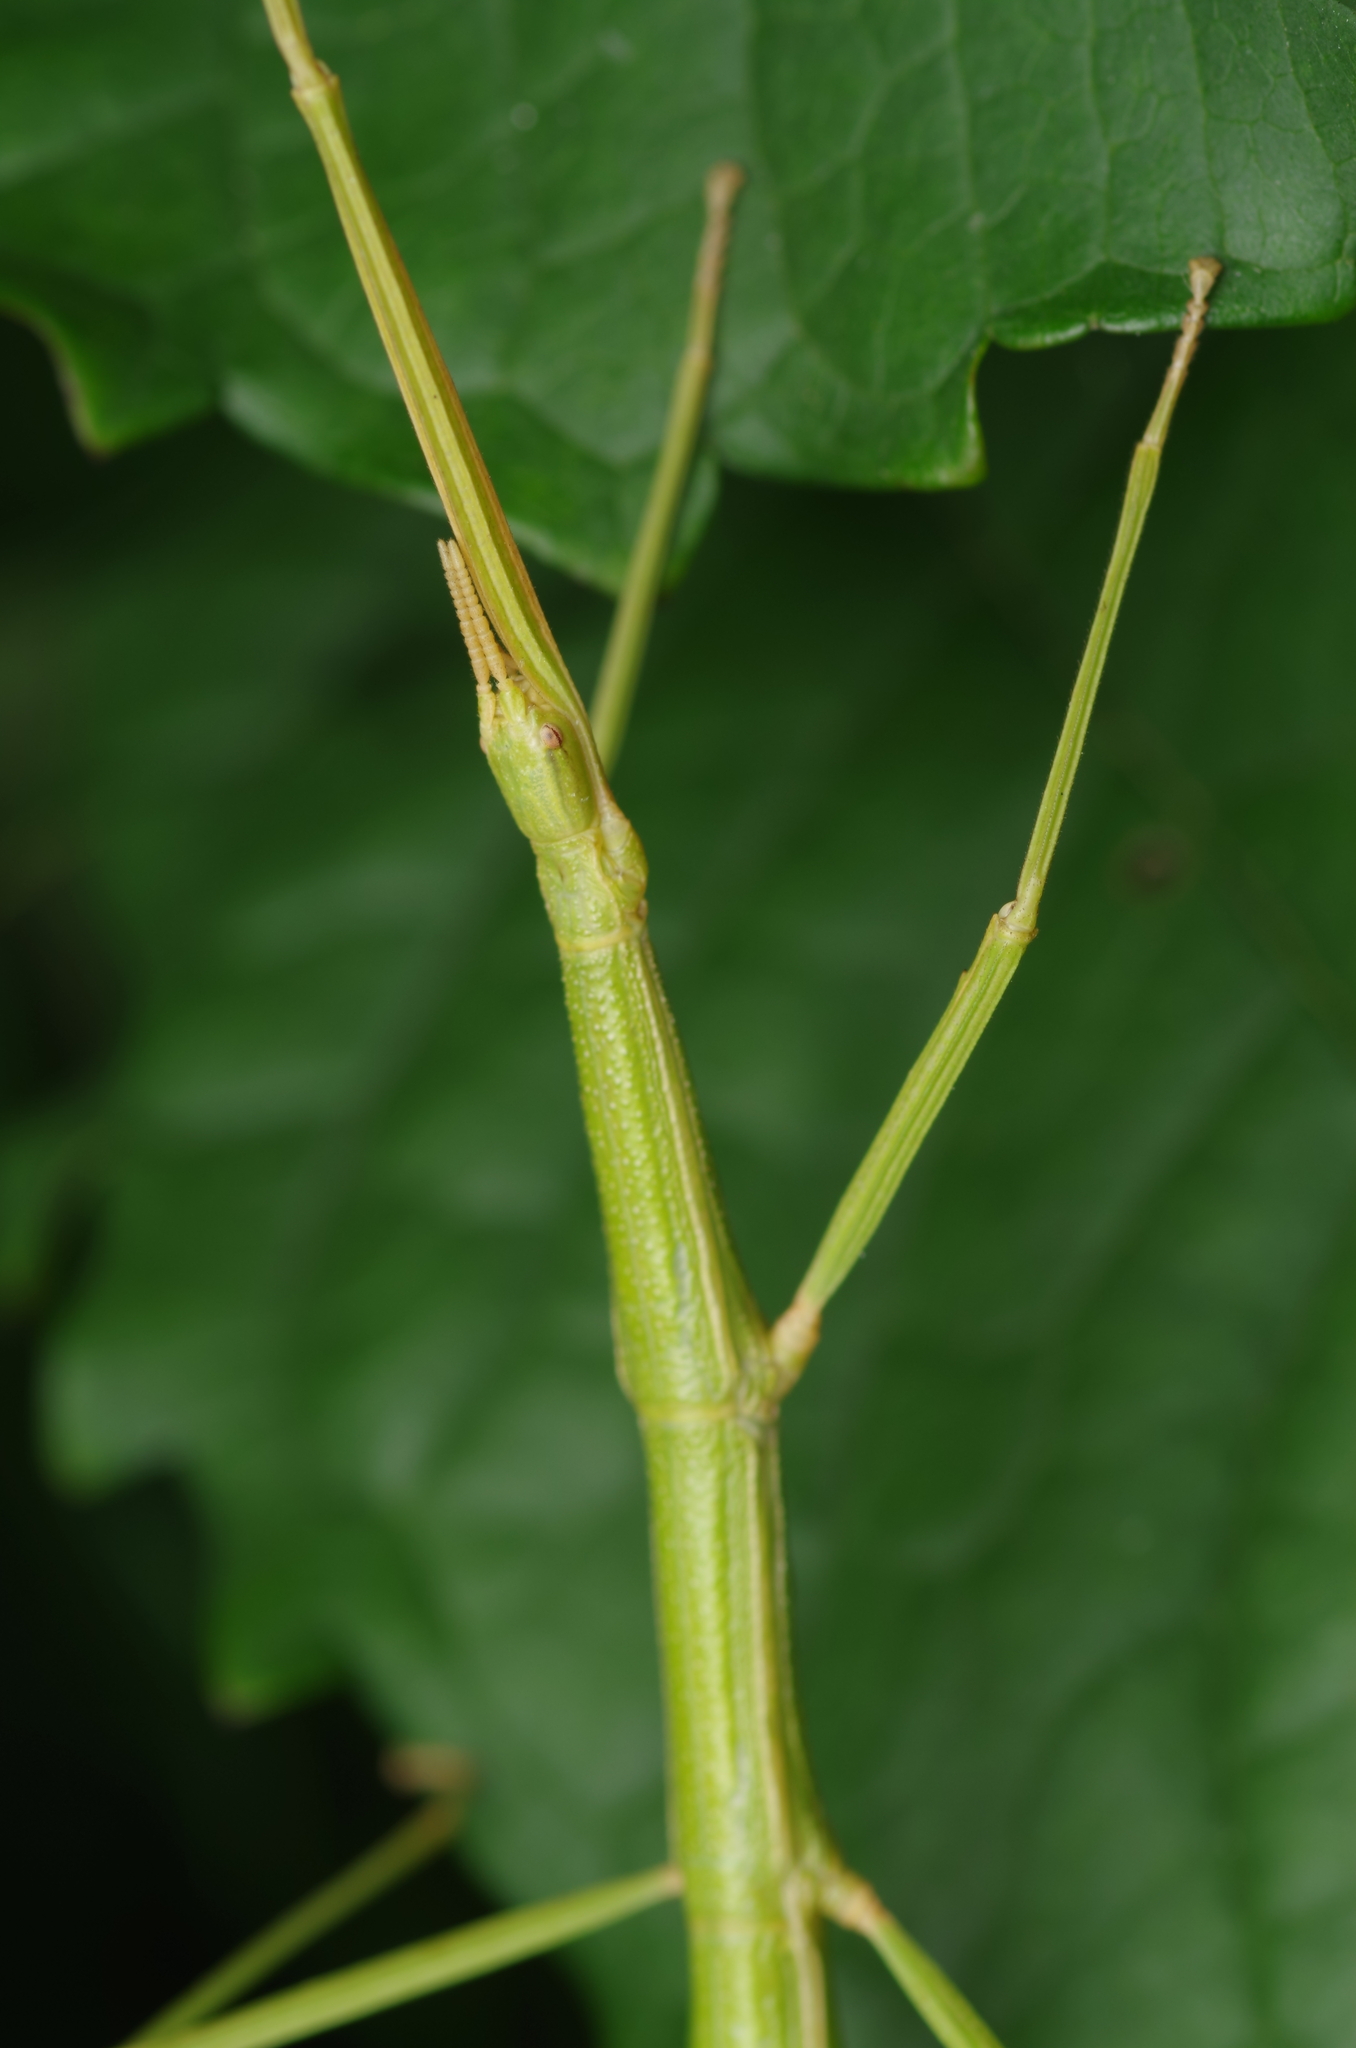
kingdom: Animalia
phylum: Arthropoda
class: Insecta
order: Phasmida
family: Bacillidae
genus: Clonopsis
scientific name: Clonopsis gallica
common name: French stick insect
